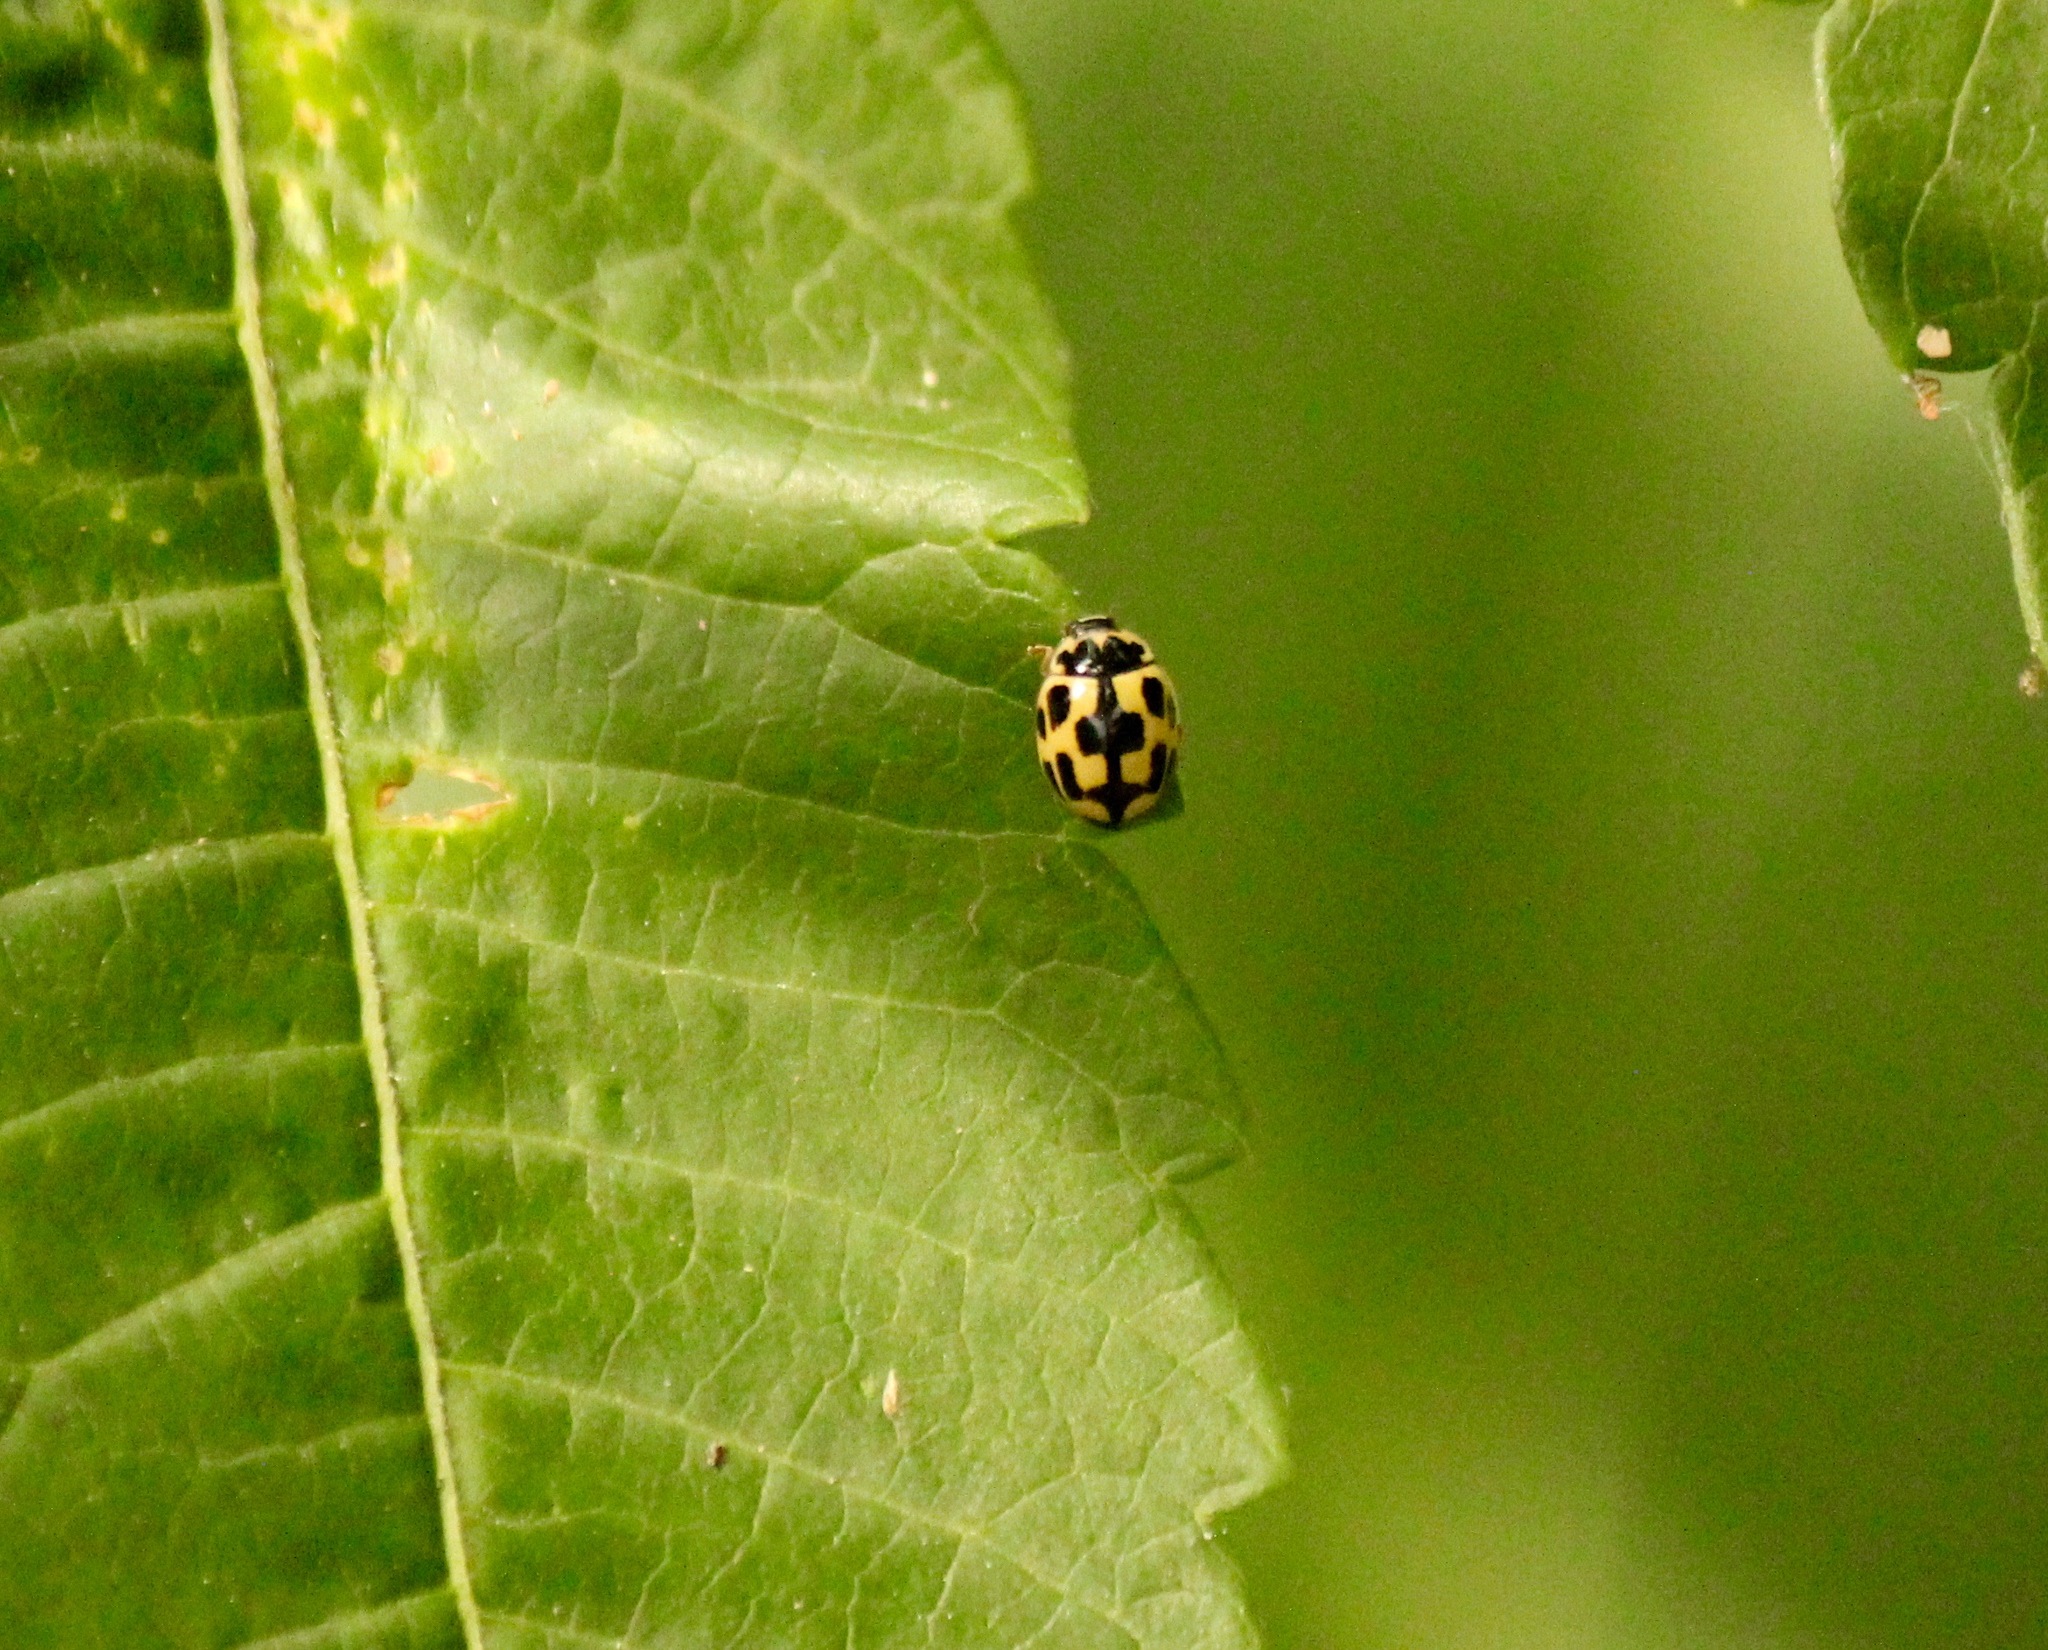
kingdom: Animalia
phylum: Arthropoda
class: Insecta
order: Coleoptera
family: Coccinellidae
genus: Propylaea
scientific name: Propylaea quatuordecimpunctata
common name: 14-spotted ladybird beetle
